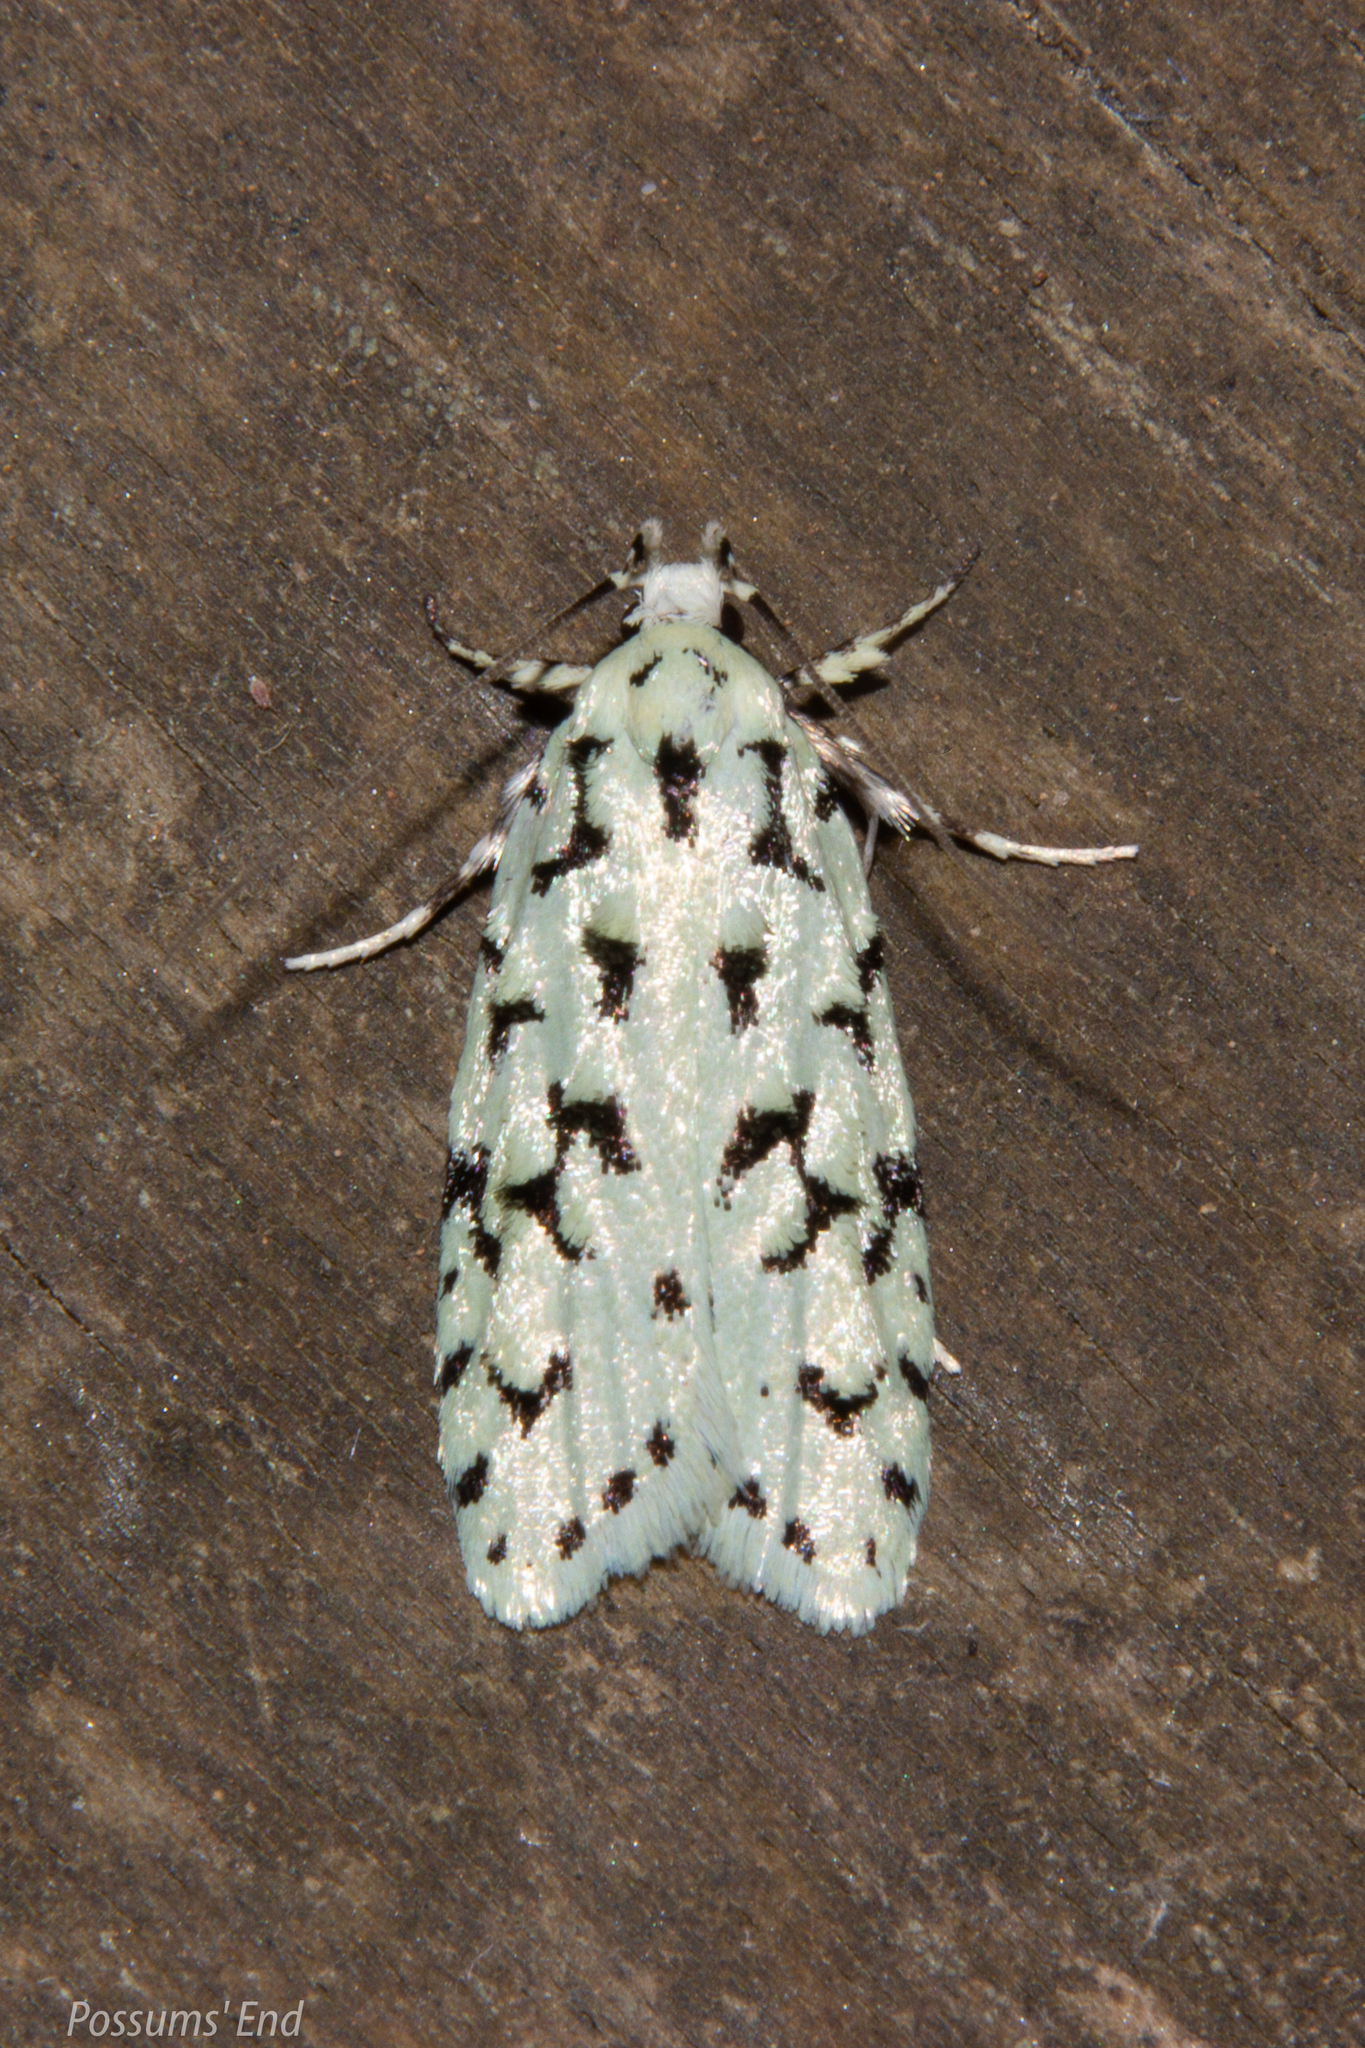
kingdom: Animalia
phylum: Arthropoda
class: Insecta
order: Lepidoptera
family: Oecophoridae
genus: Izatha
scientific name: Izatha huttoni
